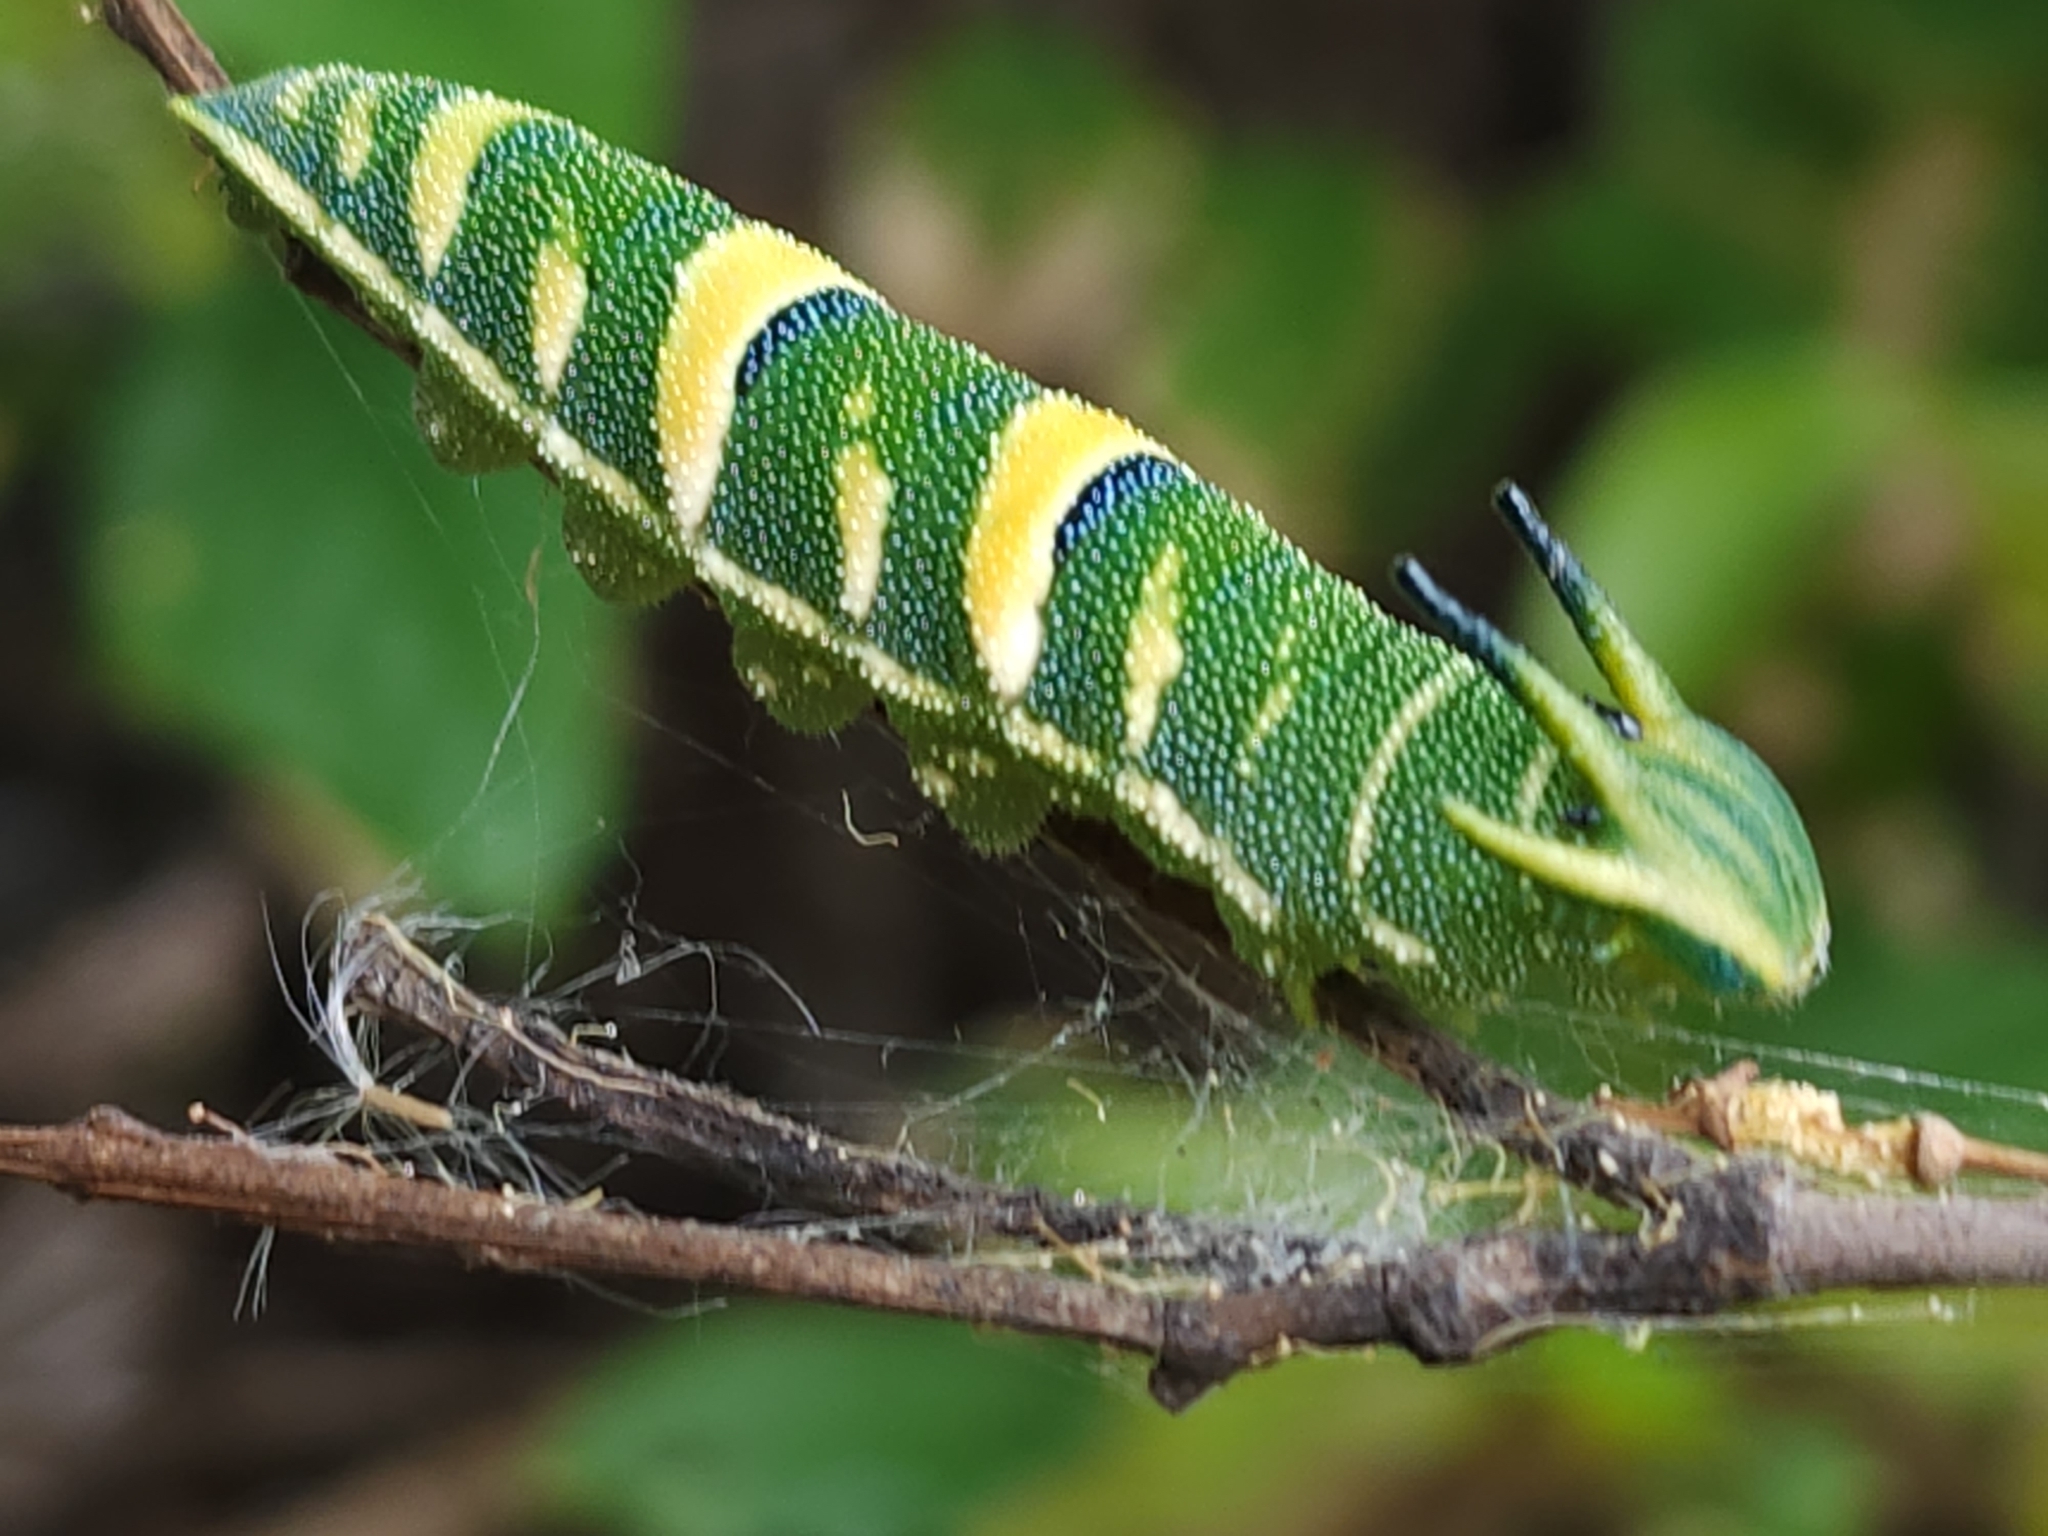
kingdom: Animalia
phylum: Arthropoda
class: Insecta
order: Lepidoptera
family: Nymphalidae
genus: Charaxes
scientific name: Charaxes
